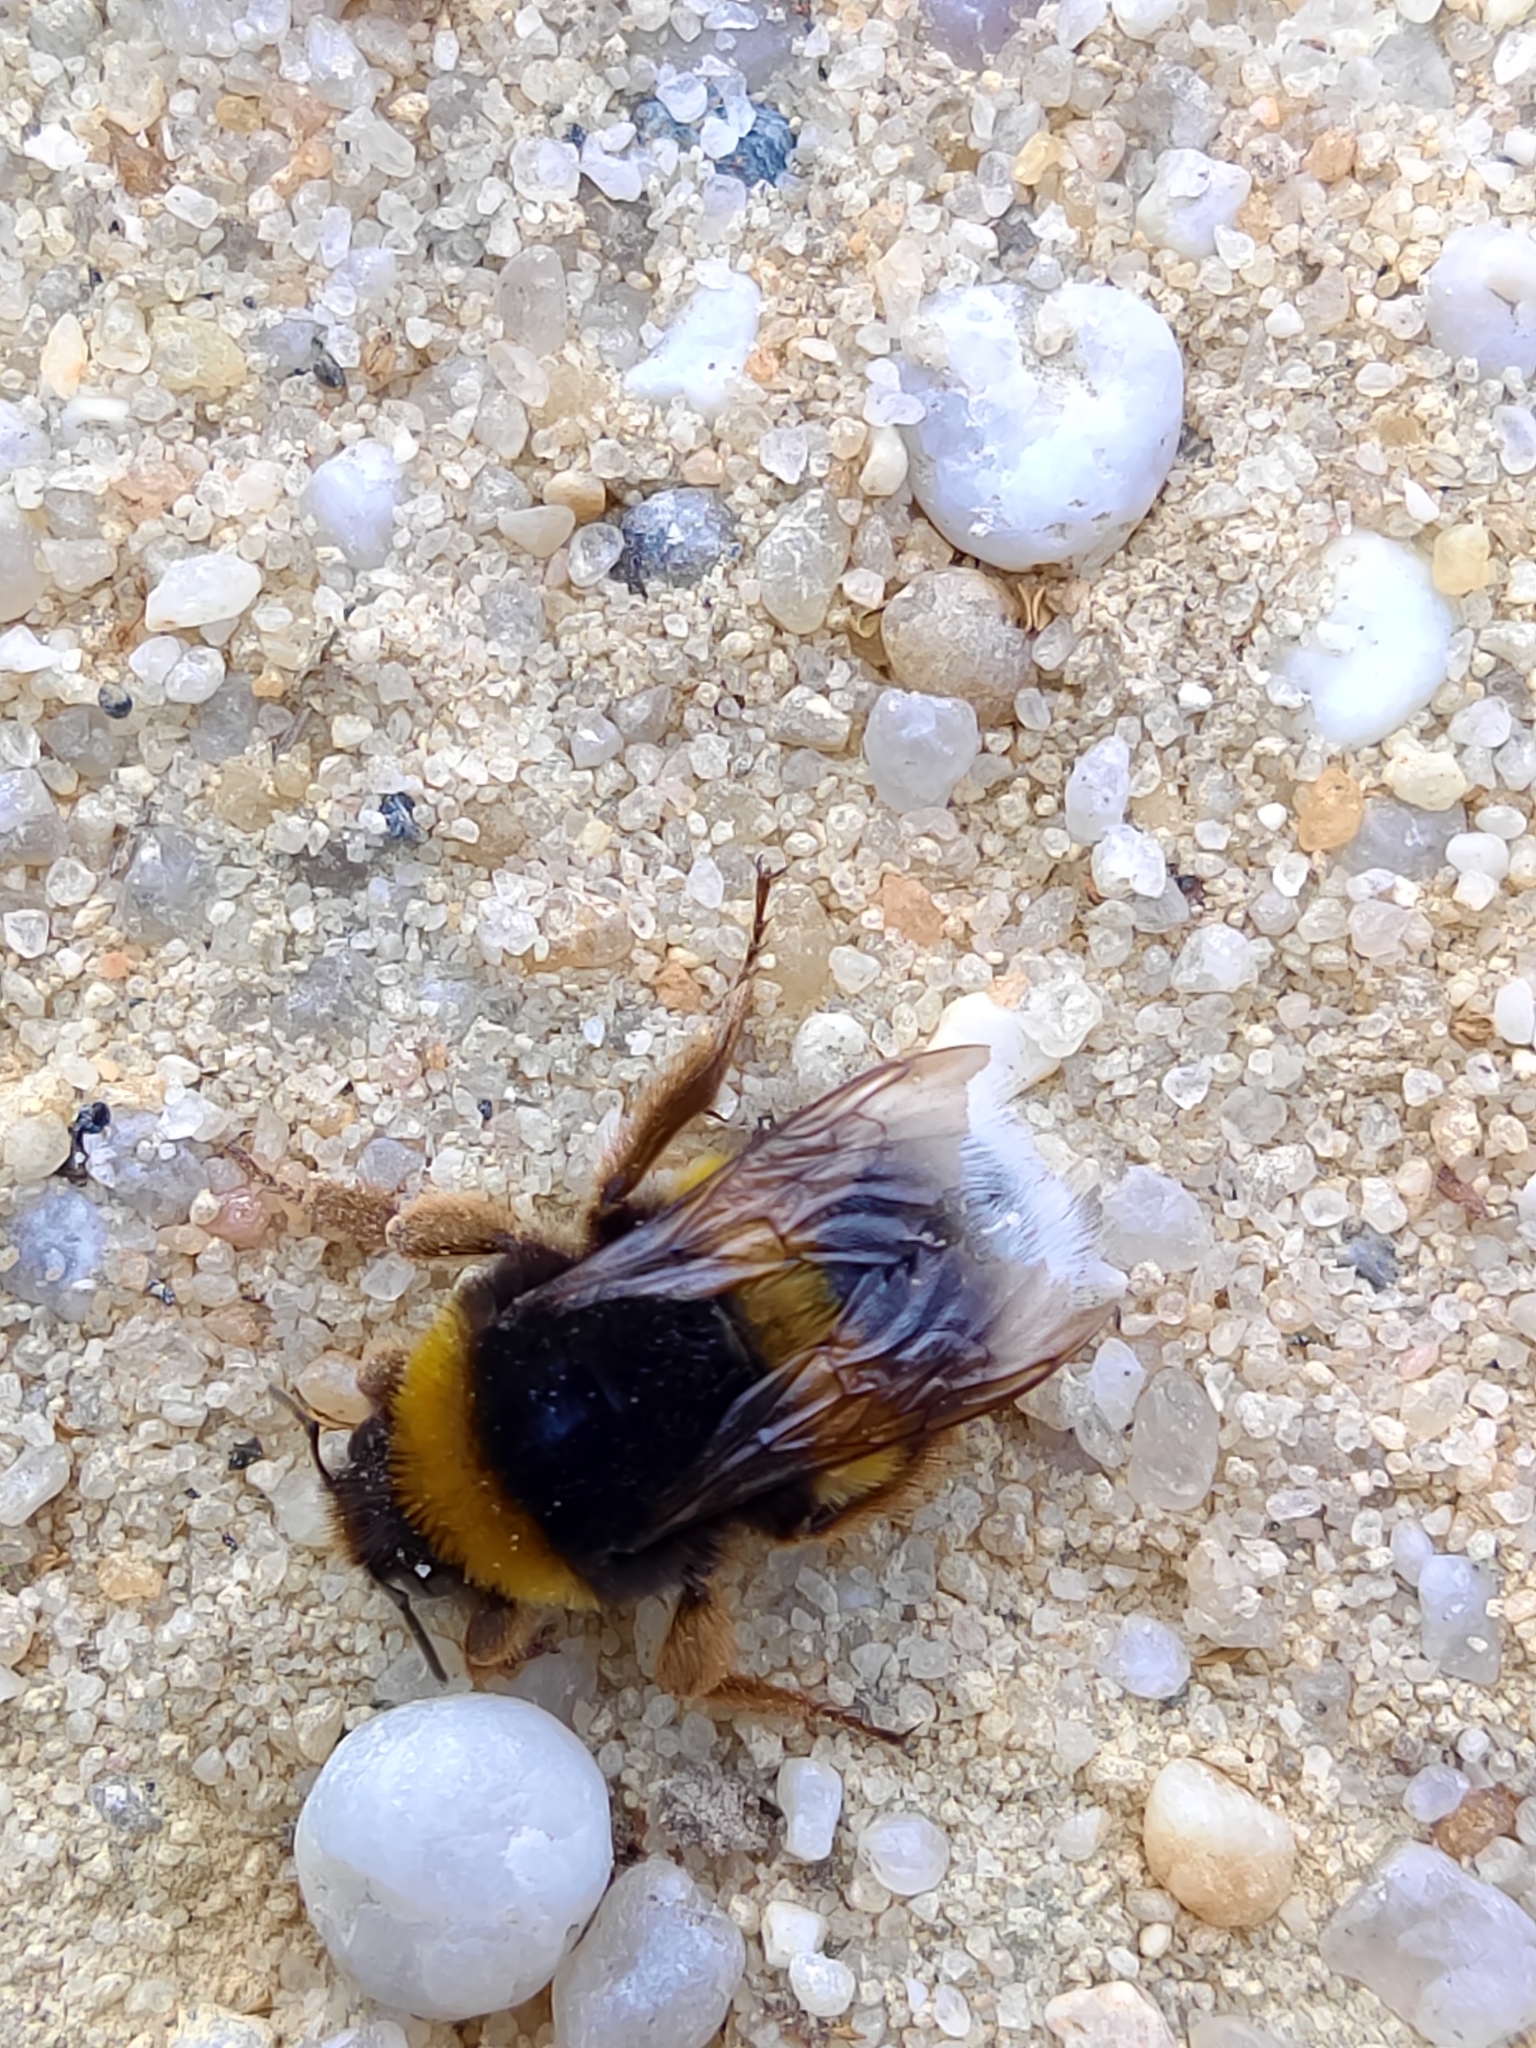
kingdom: Animalia
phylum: Arthropoda
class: Insecta
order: Hymenoptera
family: Apidae
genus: Bombus
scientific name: Bombus terrestris
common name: Buff-tailed bumblebee
